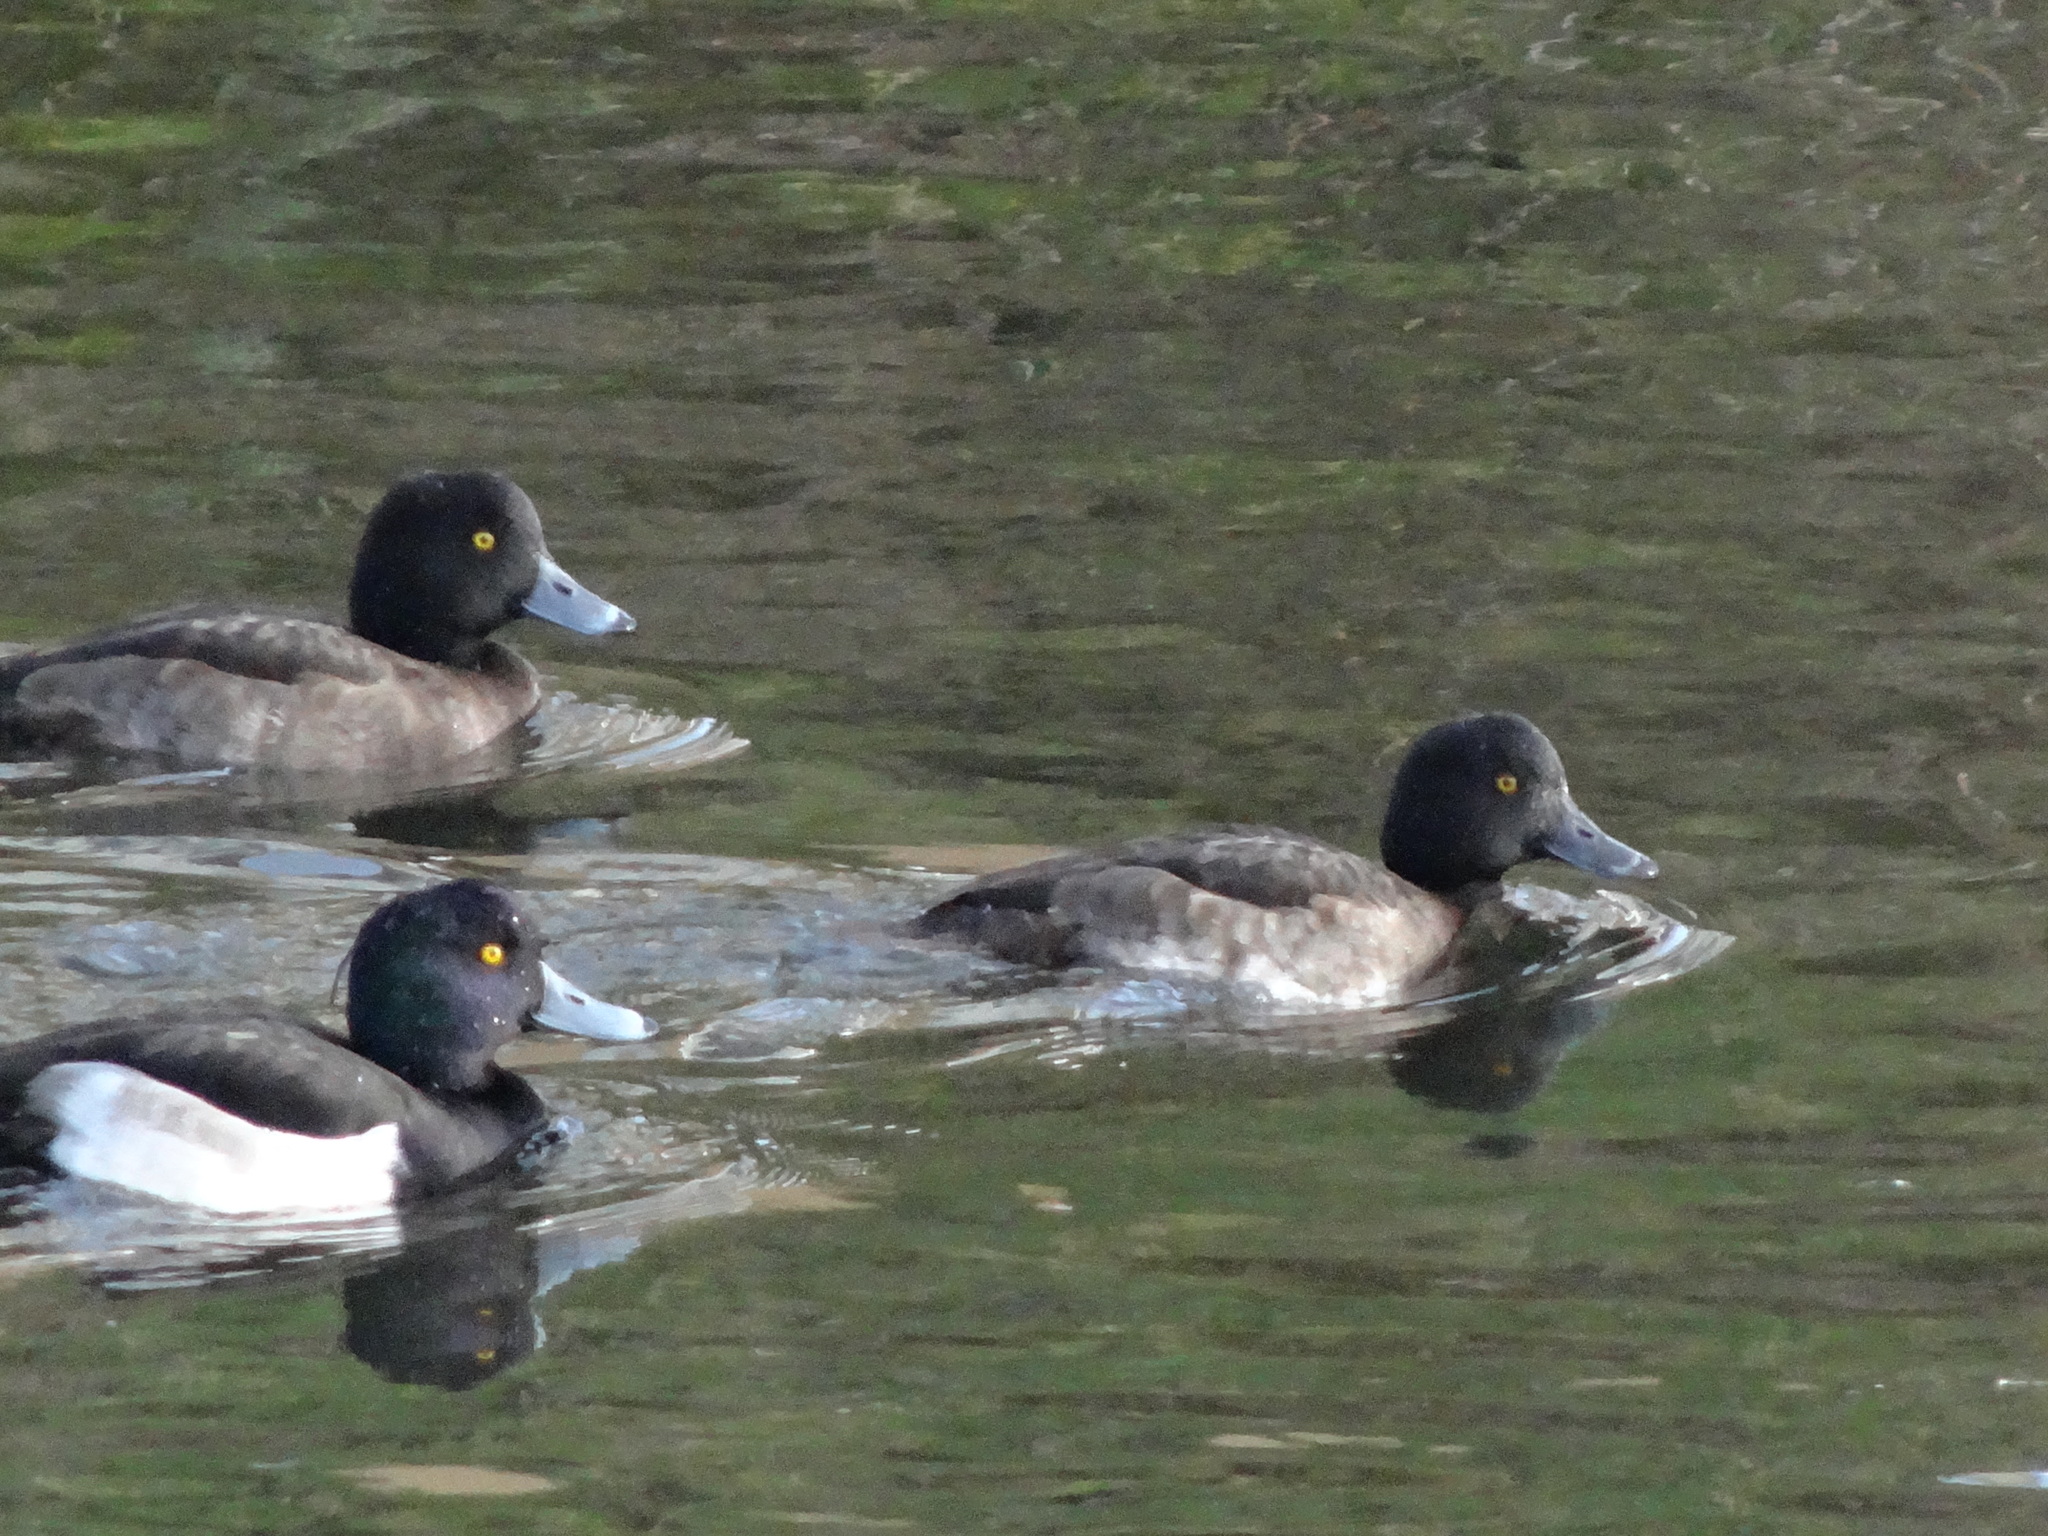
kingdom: Animalia
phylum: Chordata
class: Aves
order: Anseriformes
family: Anatidae
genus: Aythya
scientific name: Aythya fuligula
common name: Tufted duck
